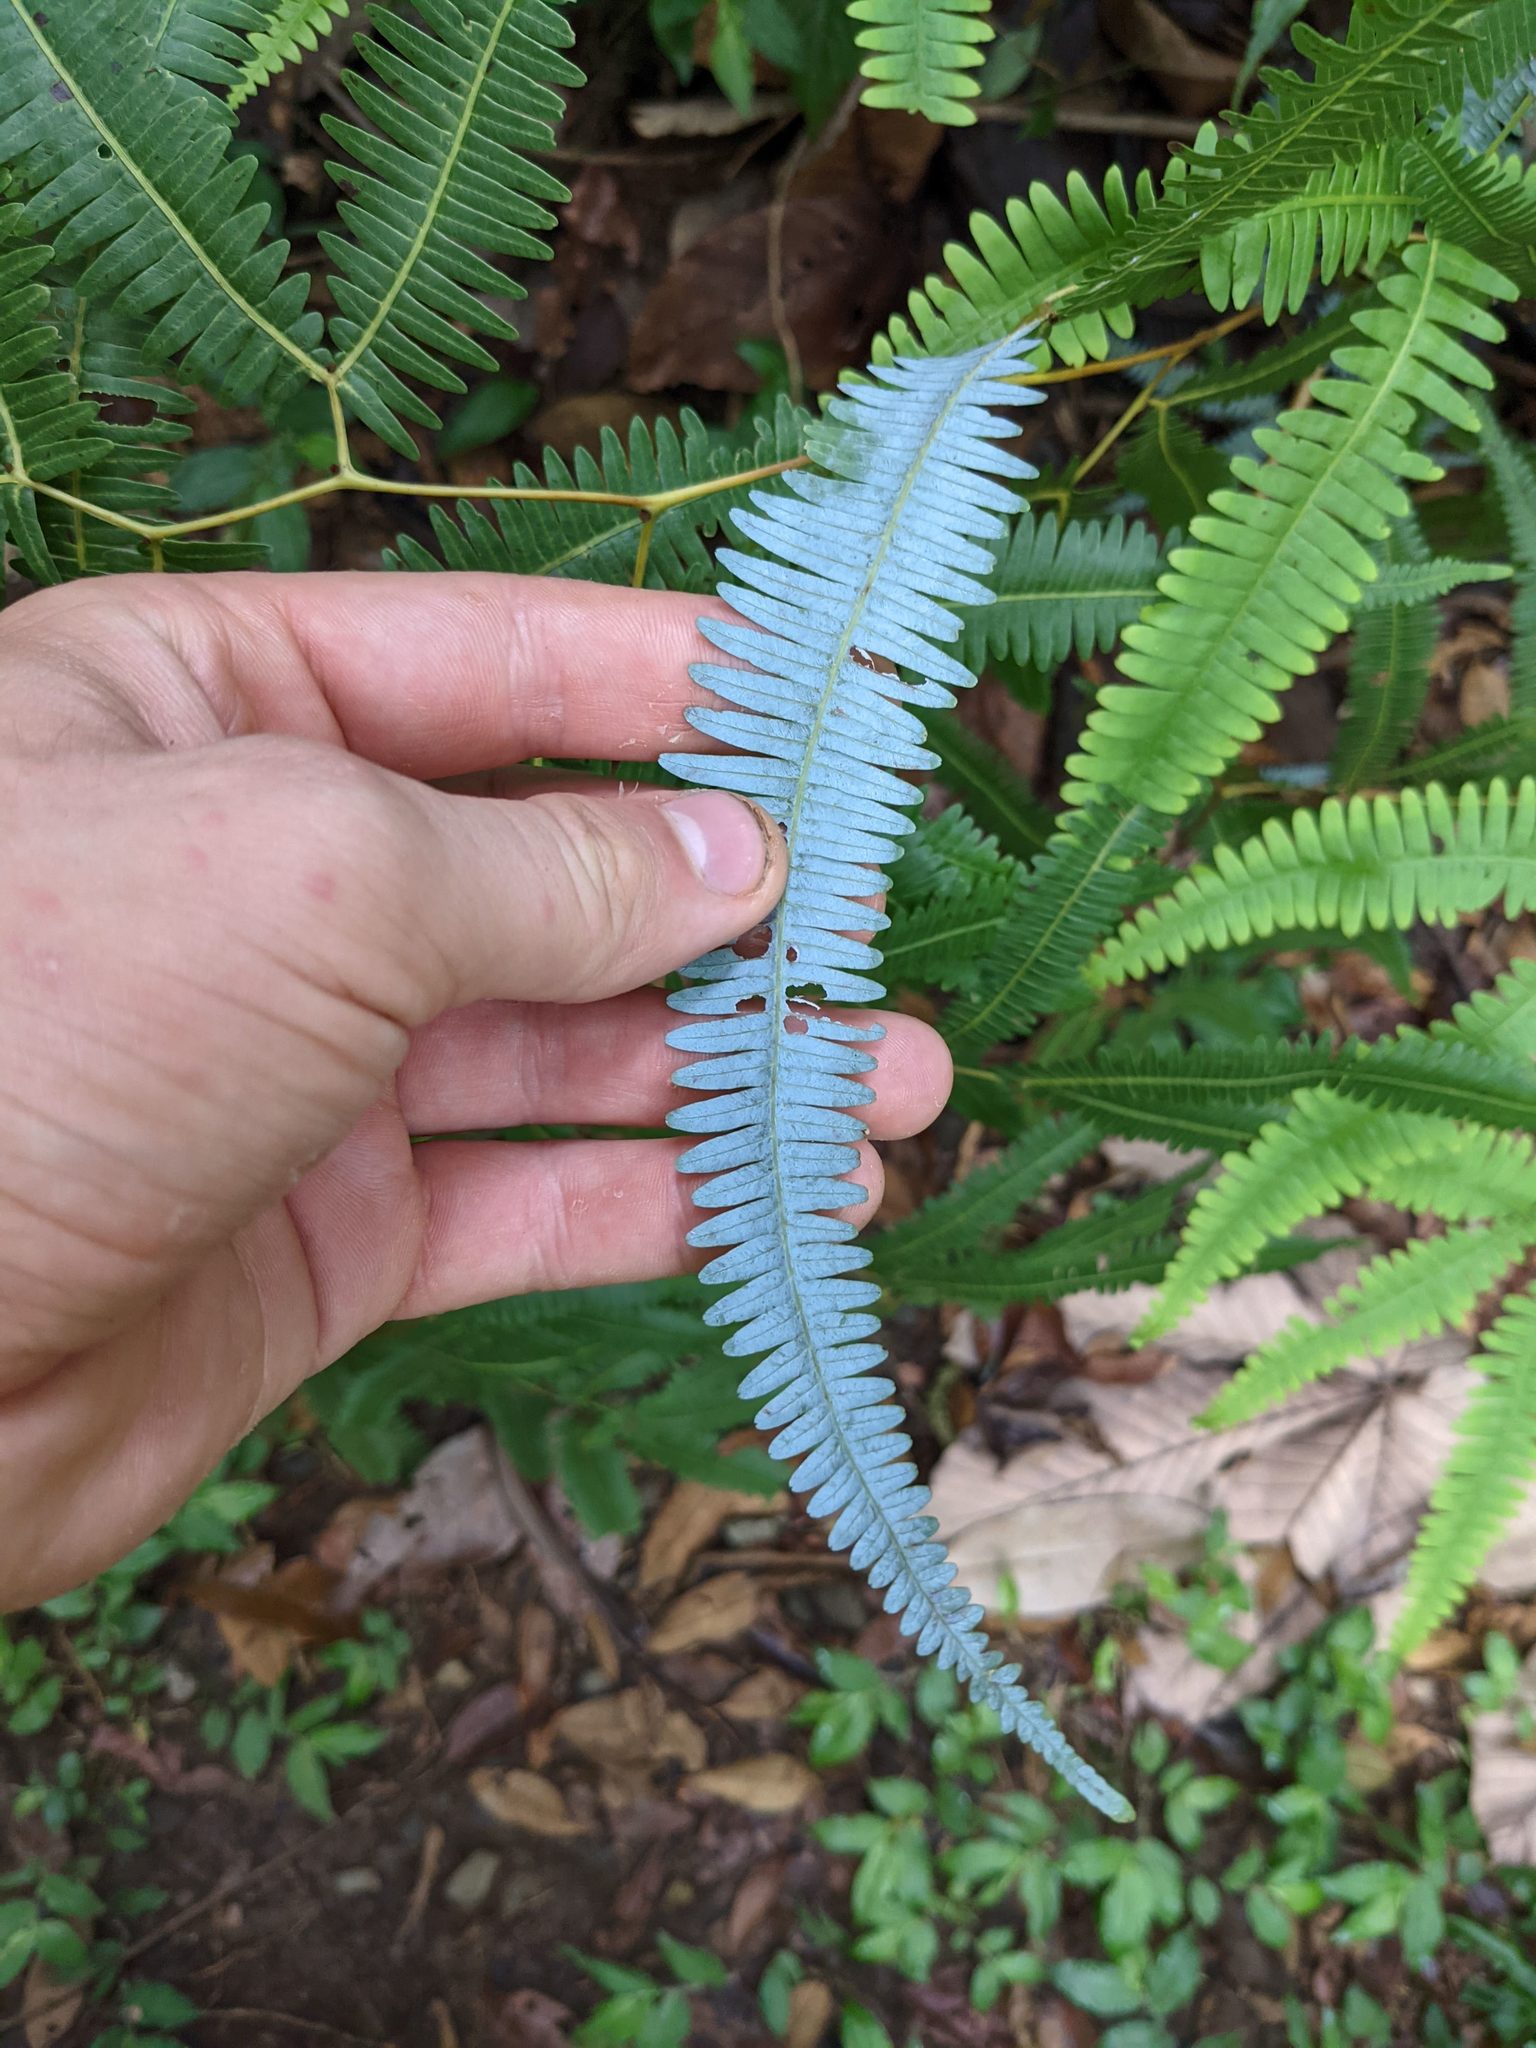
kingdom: Plantae
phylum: Tracheophyta
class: Polypodiopsida
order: Gleicheniales
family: Gleicheniaceae
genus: Gleichenella
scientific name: Gleichenella pectinata
